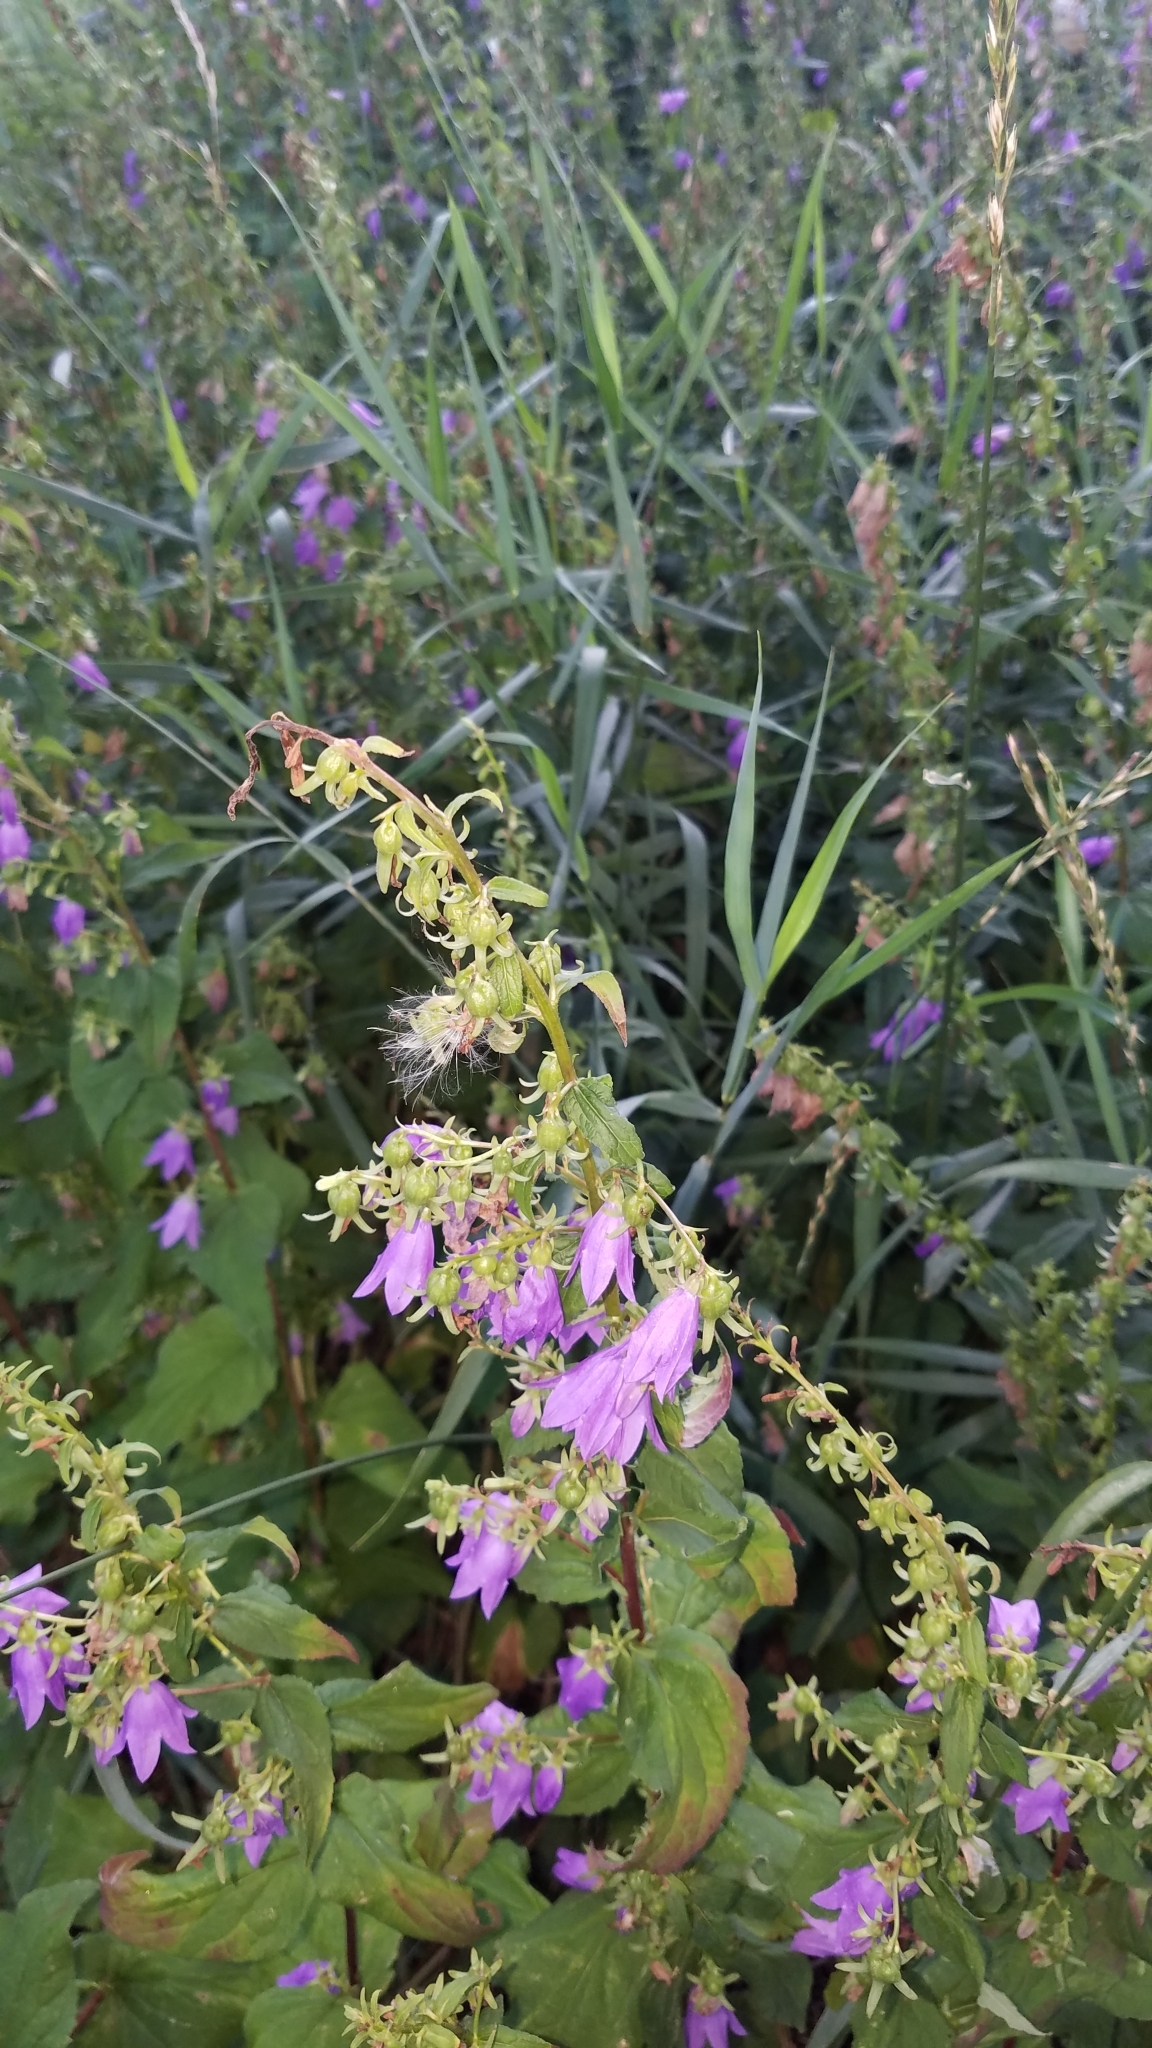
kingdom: Plantae
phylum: Tracheophyta
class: Magnoliopsida
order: Asterales
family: Campanulaceae
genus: Campanula
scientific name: Campanula rapunculoides
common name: Creeping bellflower
